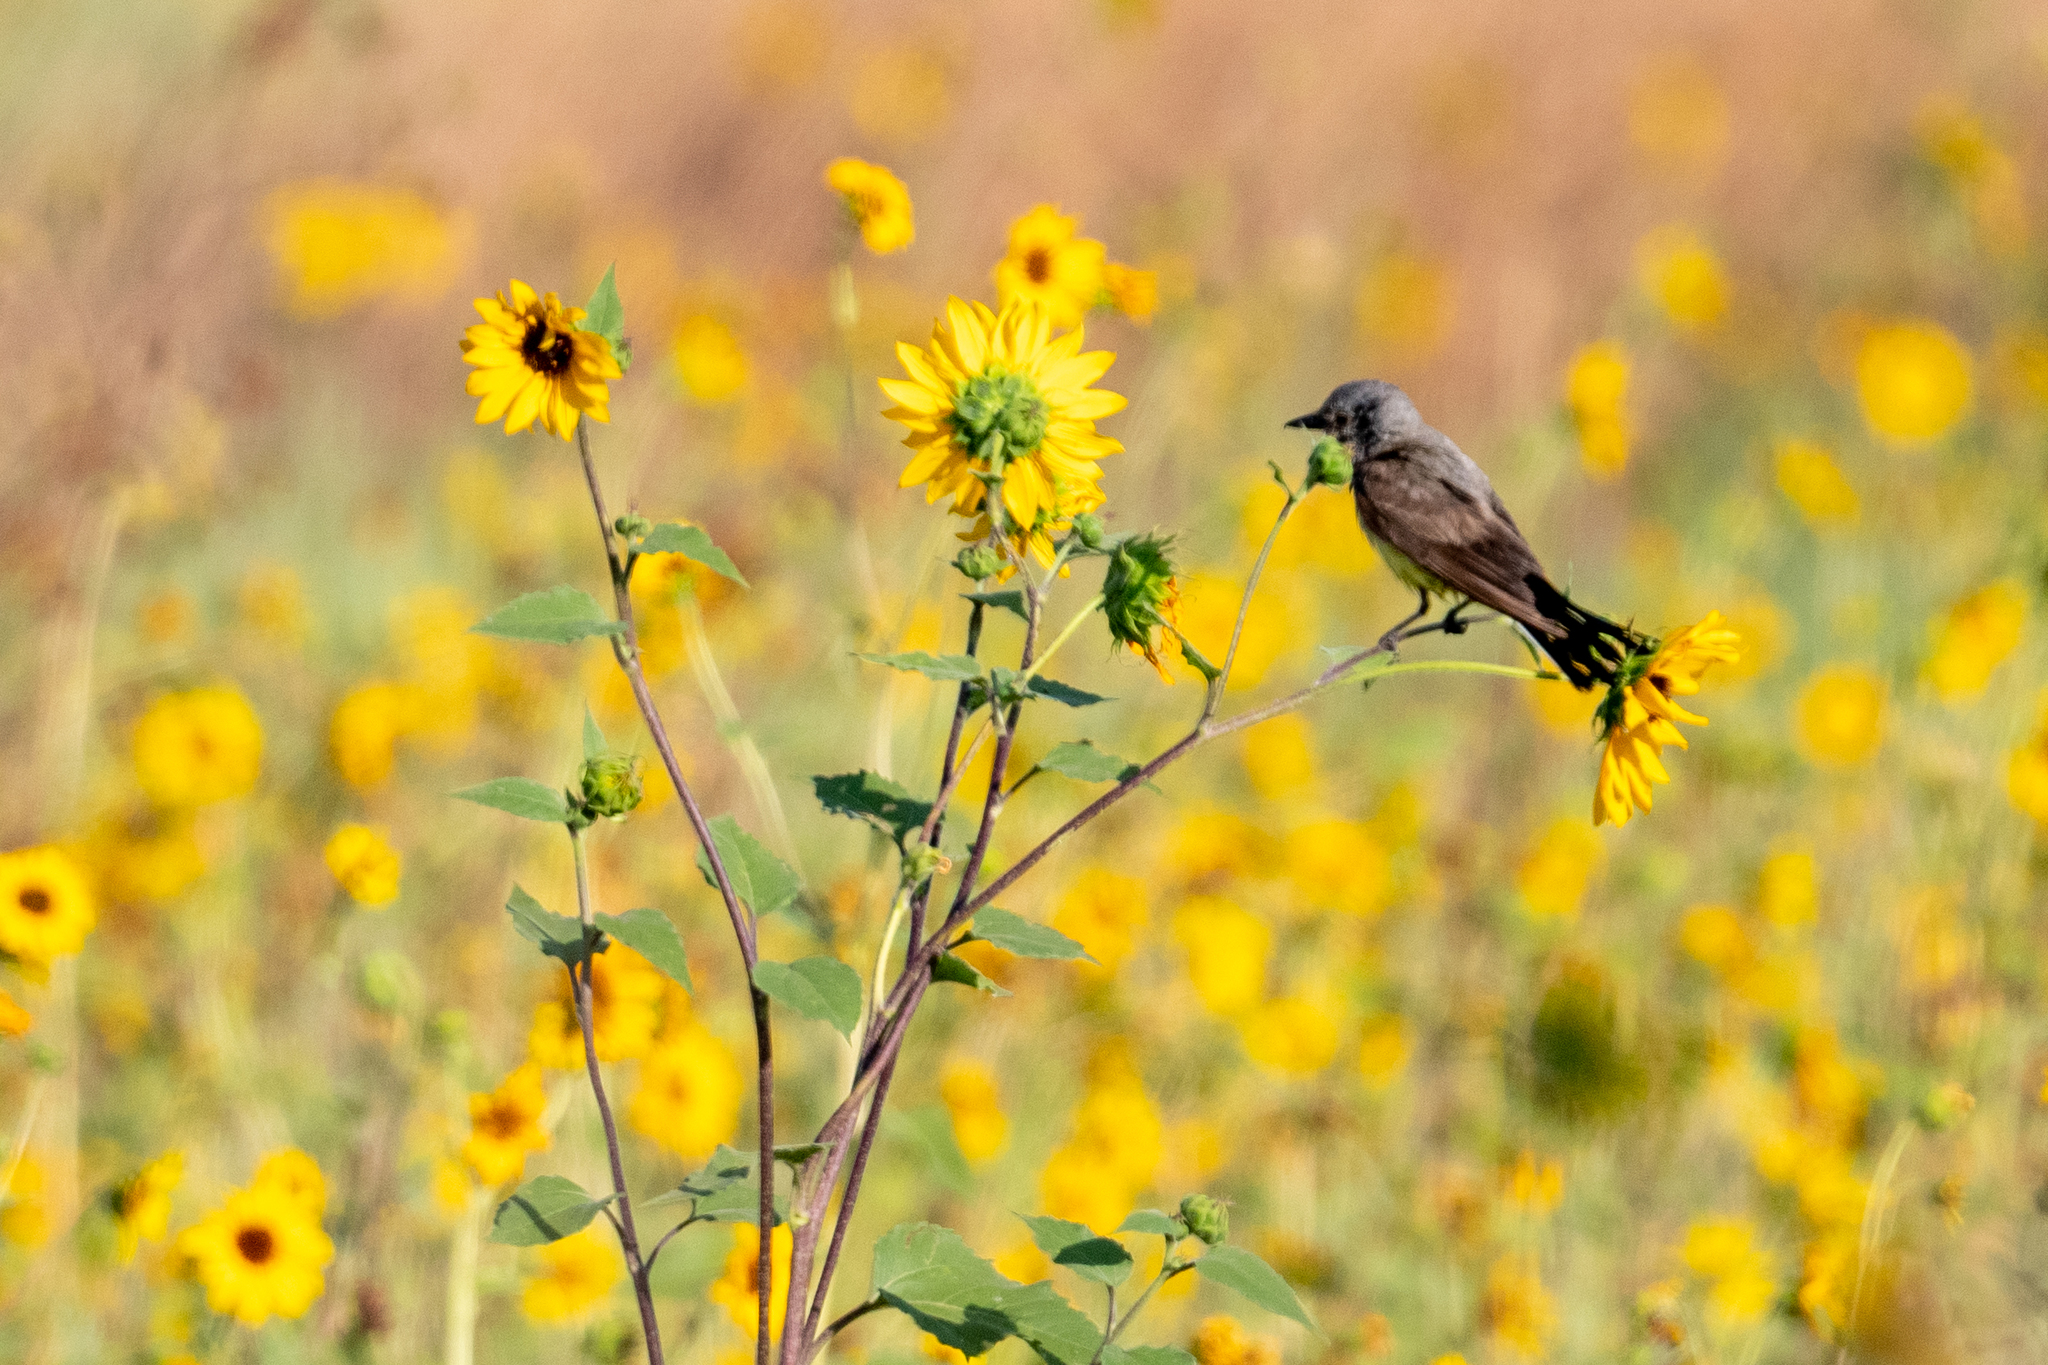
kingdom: Animalia
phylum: Chordata
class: Aves
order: Passeriformes
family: Tyrannidae
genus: Tyrannus
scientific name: Tyrannus verticalis
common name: Western kingbird
